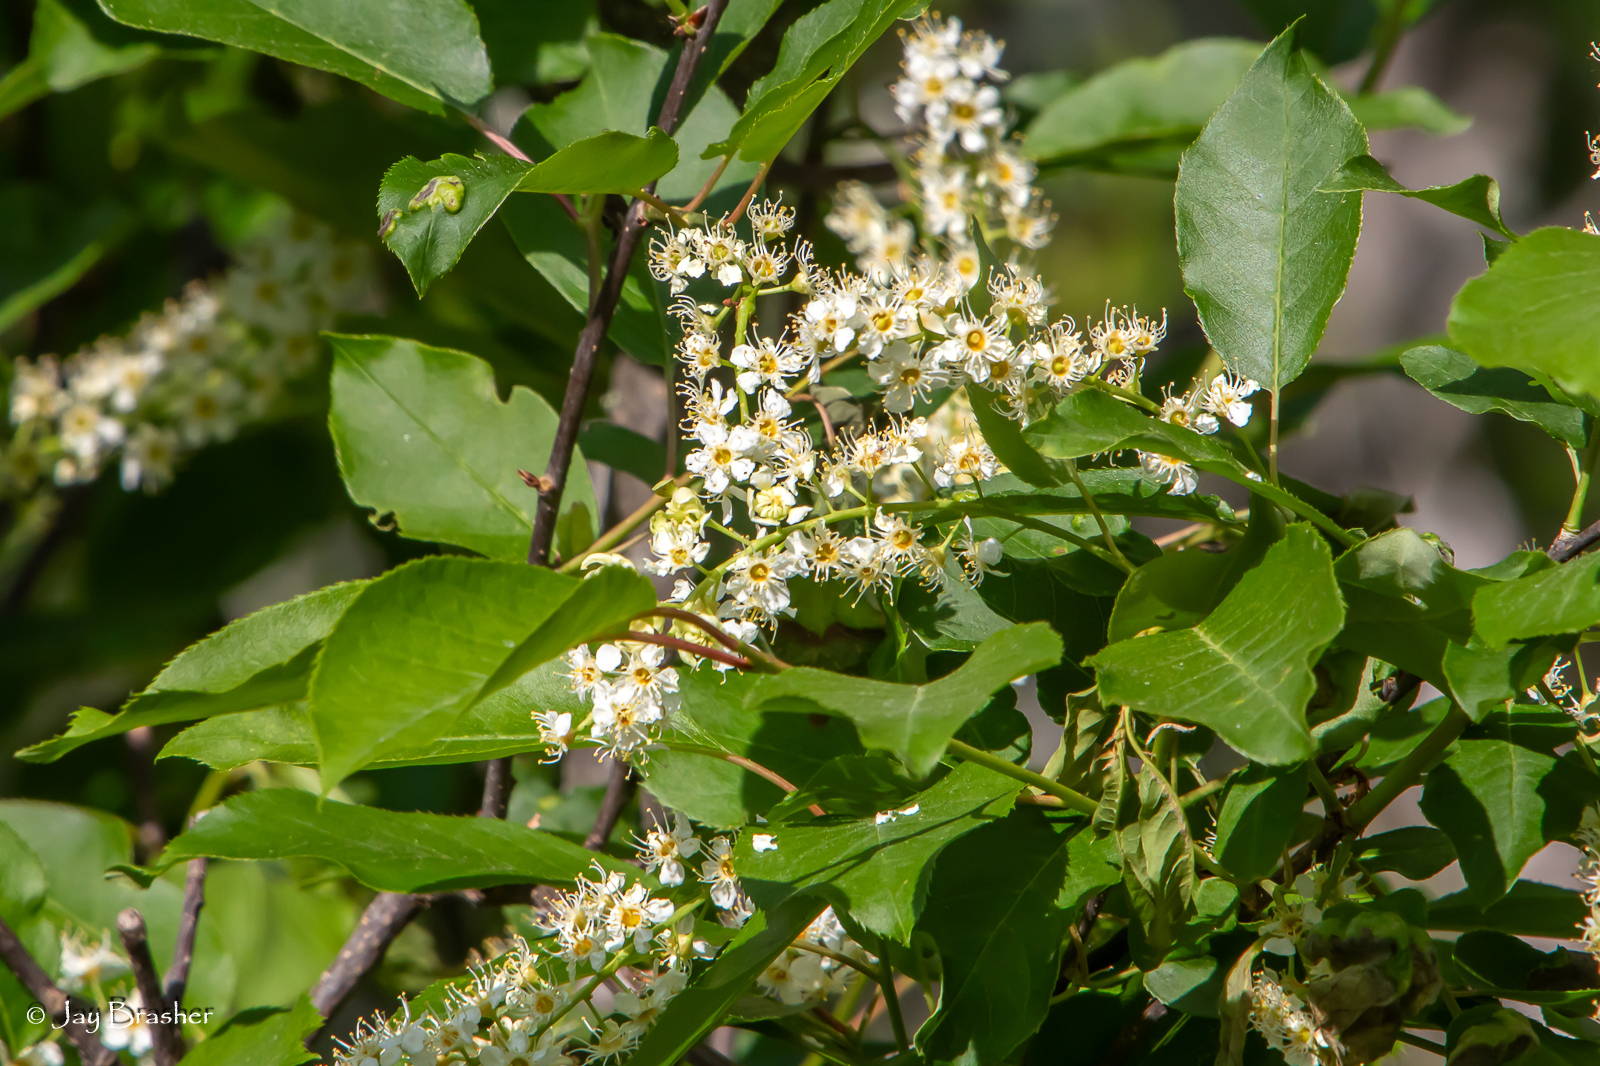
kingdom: Plantae
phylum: Tracheophyta
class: Magnoliopsida
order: Rosales
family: Rosaceae
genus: Prunus
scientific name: Prunus virginiana
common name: Chokecherry
